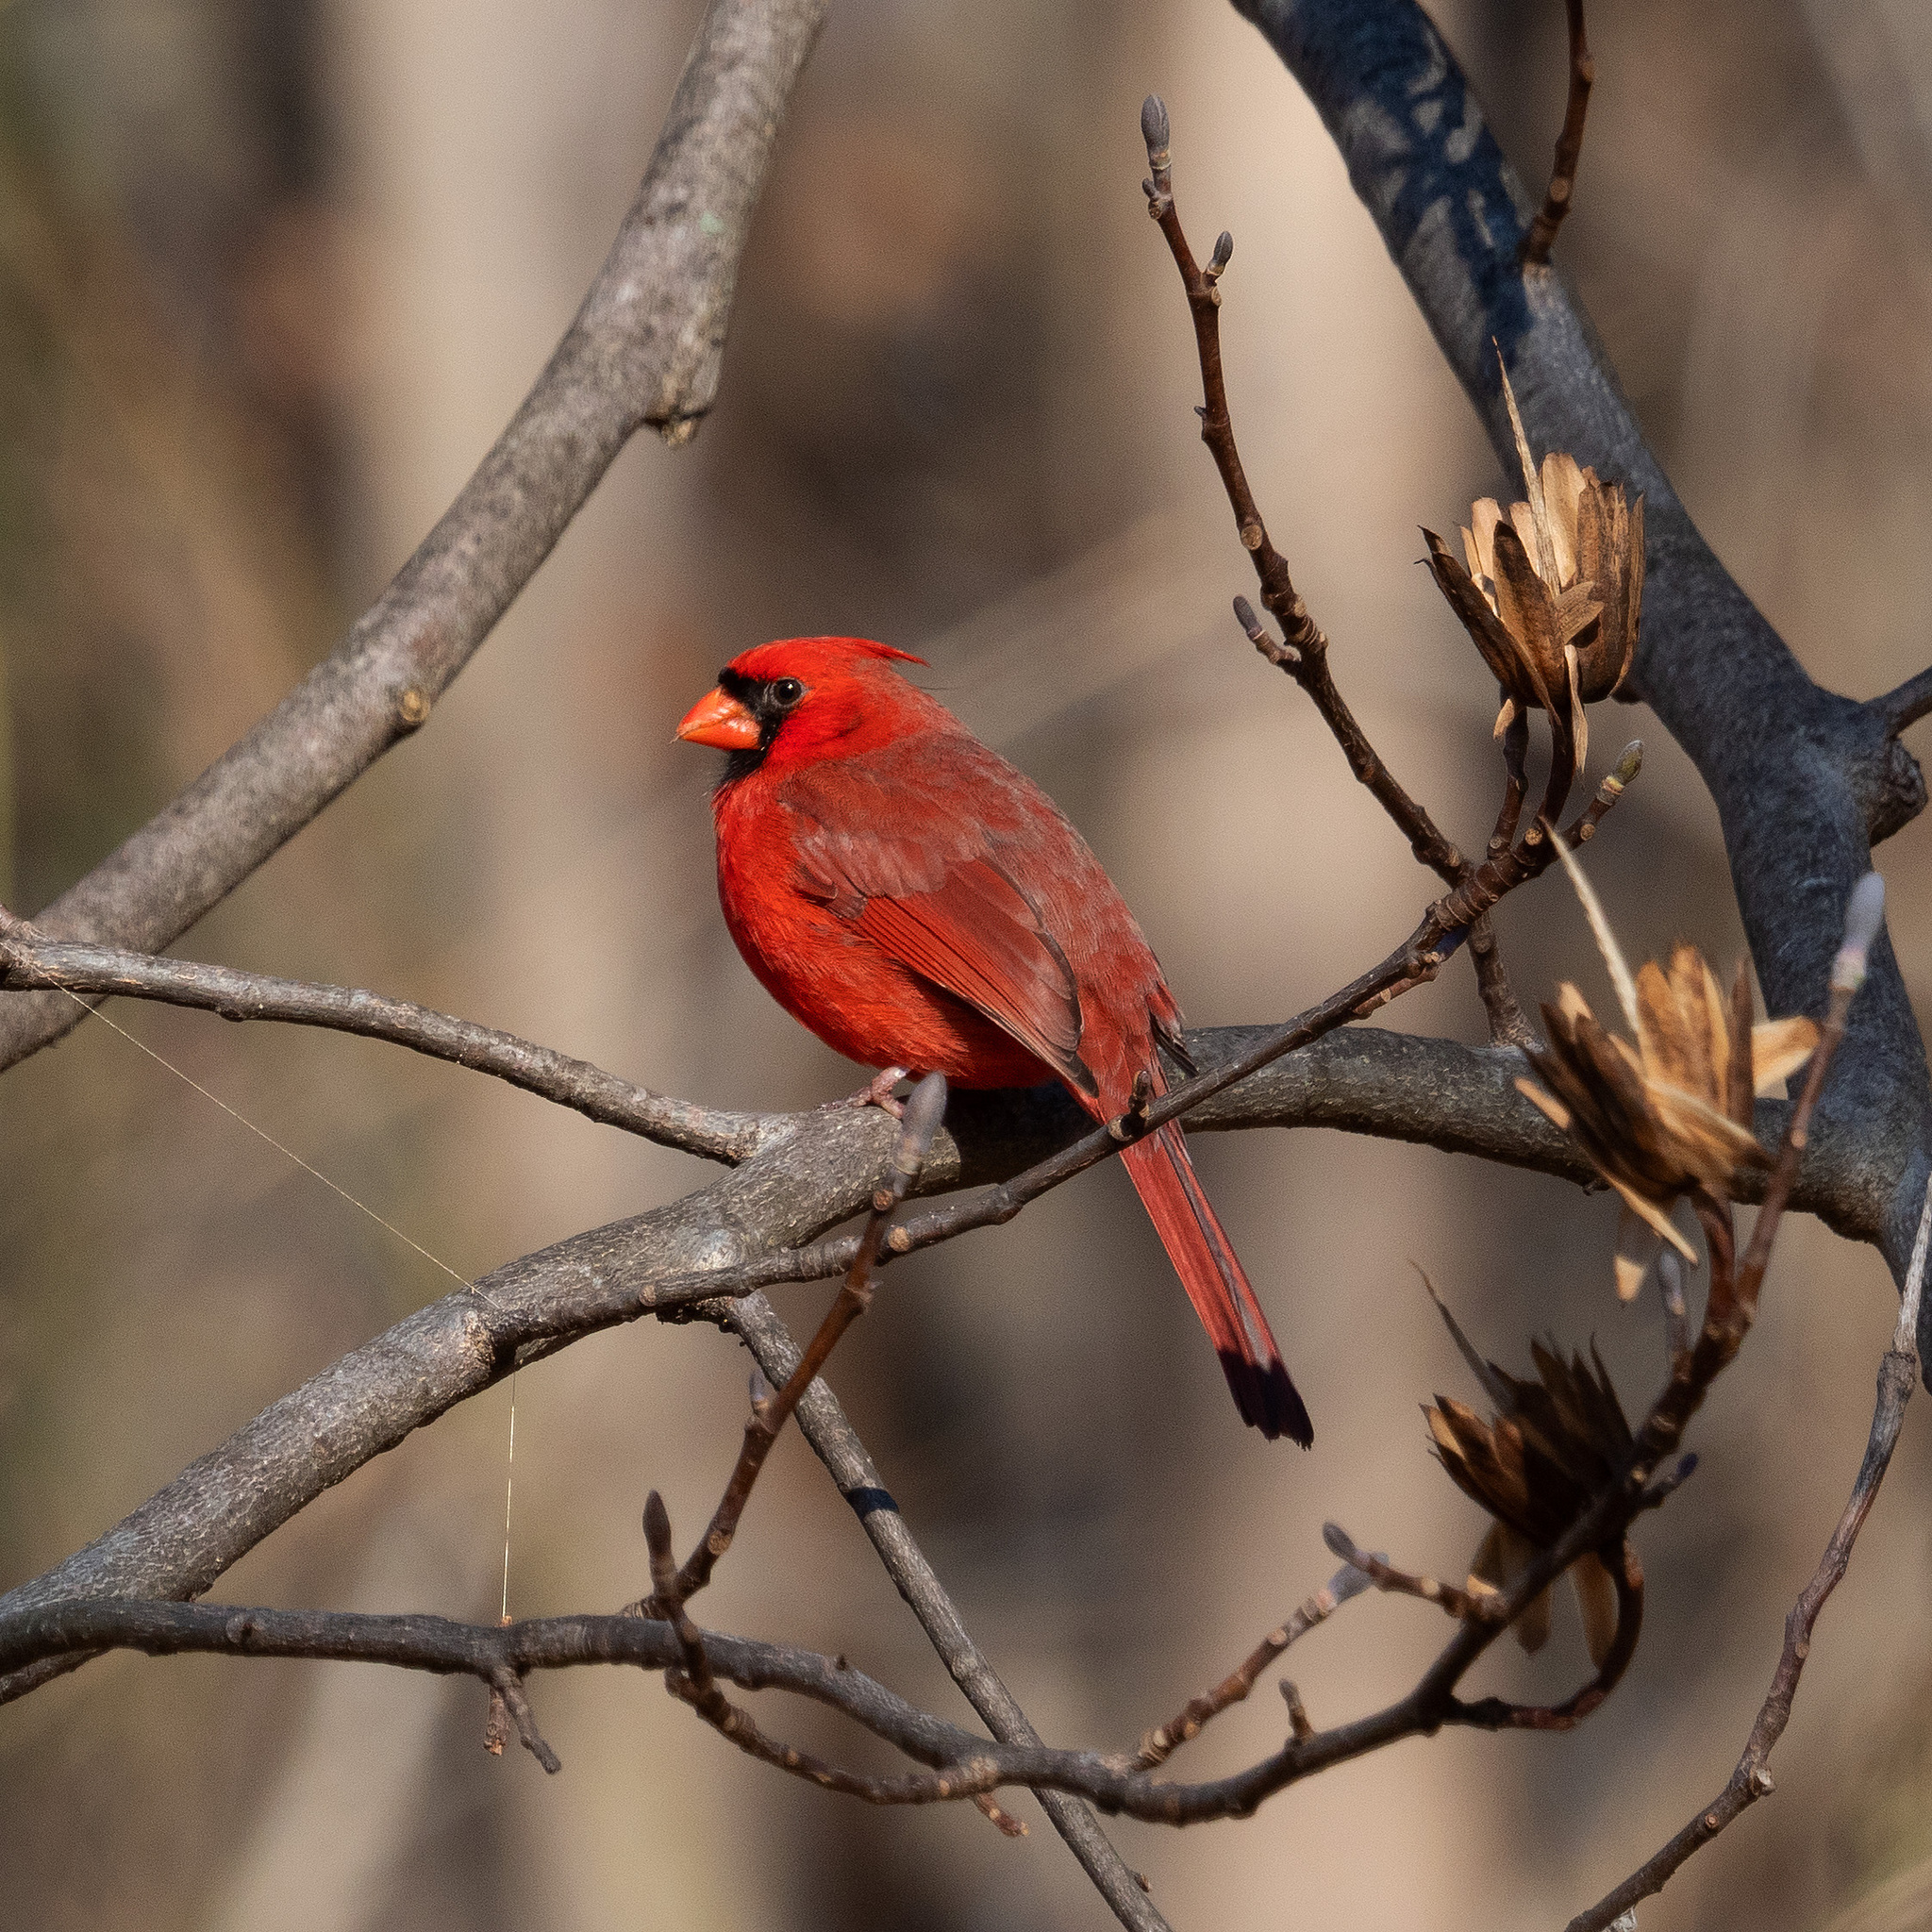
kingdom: Animalia
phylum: Chordata
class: Aves
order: Passeriformes
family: Cardinalidae
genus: Cardinalis
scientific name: Cardinalis cardinalis
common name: Northern cardinal
